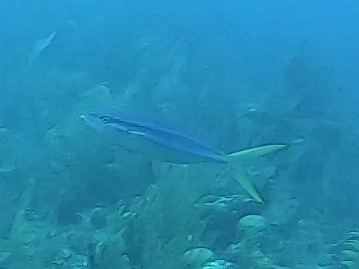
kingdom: Animalia
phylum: Chordata
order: Perciformes
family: Carangidae
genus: Elagatis
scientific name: Elagatis bipinnulata
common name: Rainbow runner
